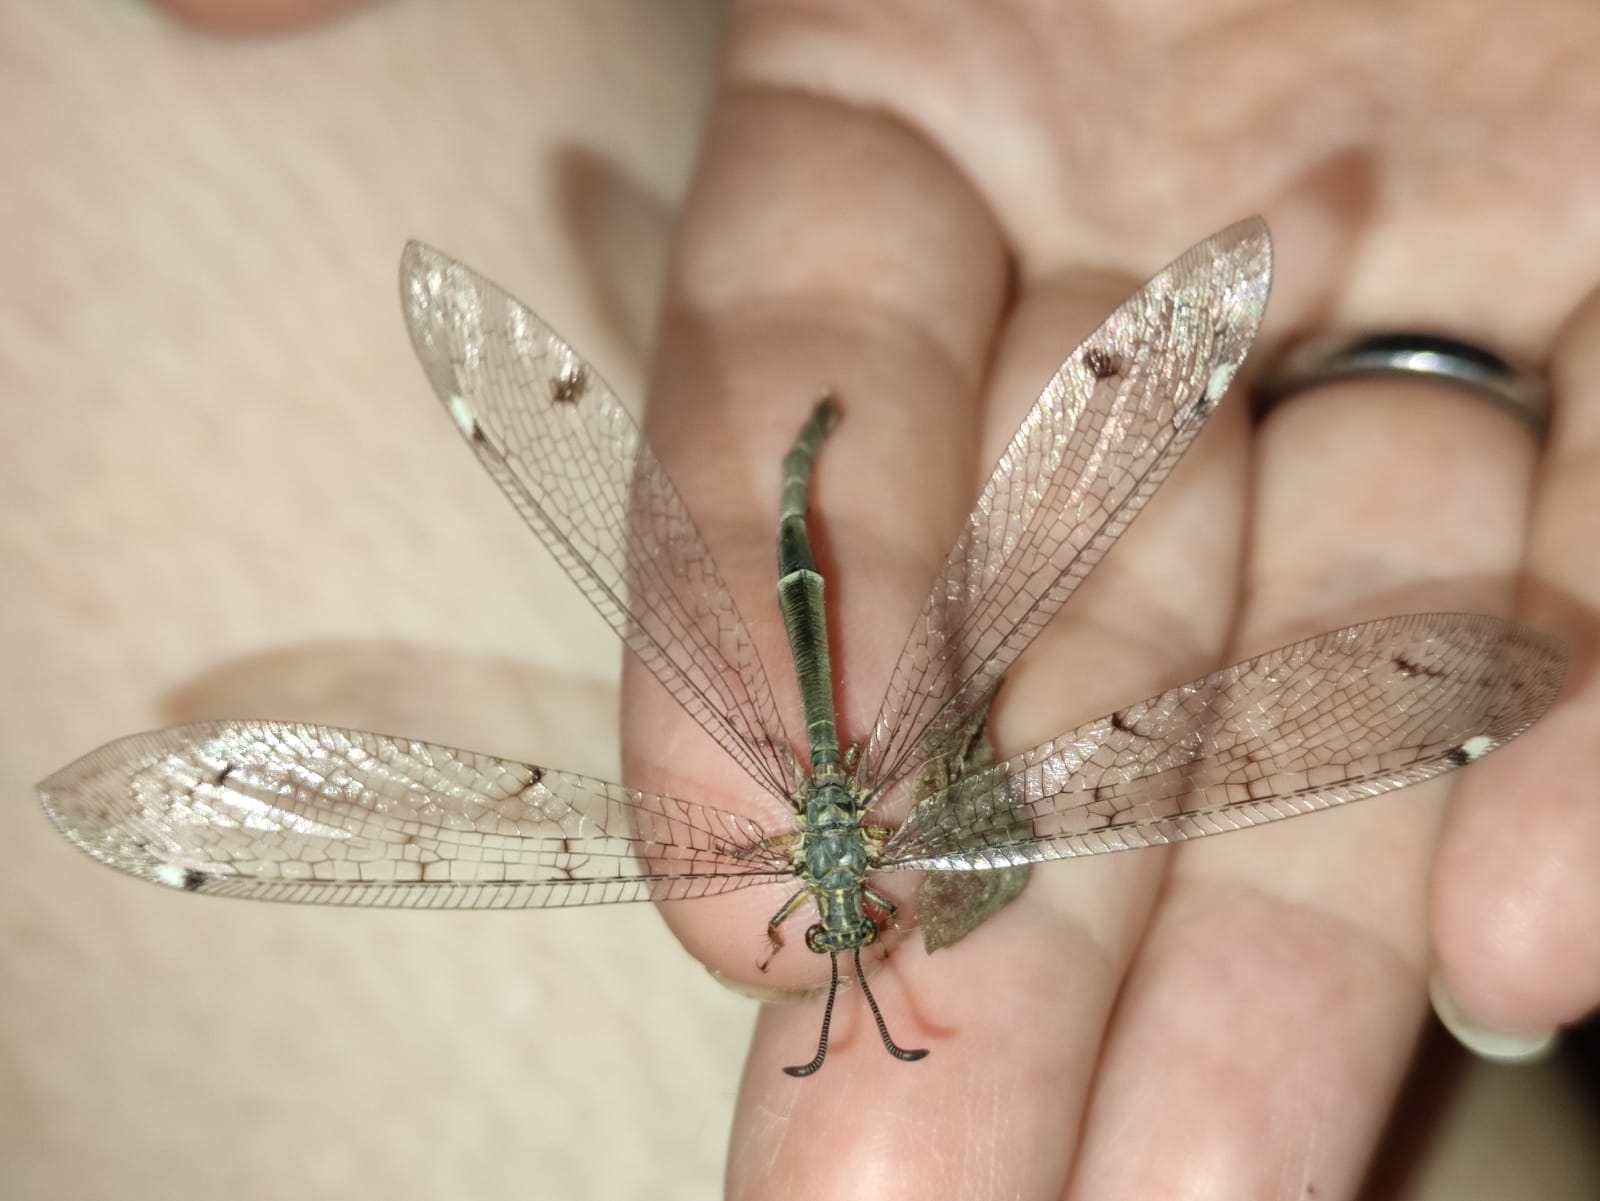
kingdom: Animalia
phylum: Arthropoda
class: Insecta
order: Neuroptera
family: Myrmeleontidae
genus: Distoleon
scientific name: Distoleon tetragrammicus
